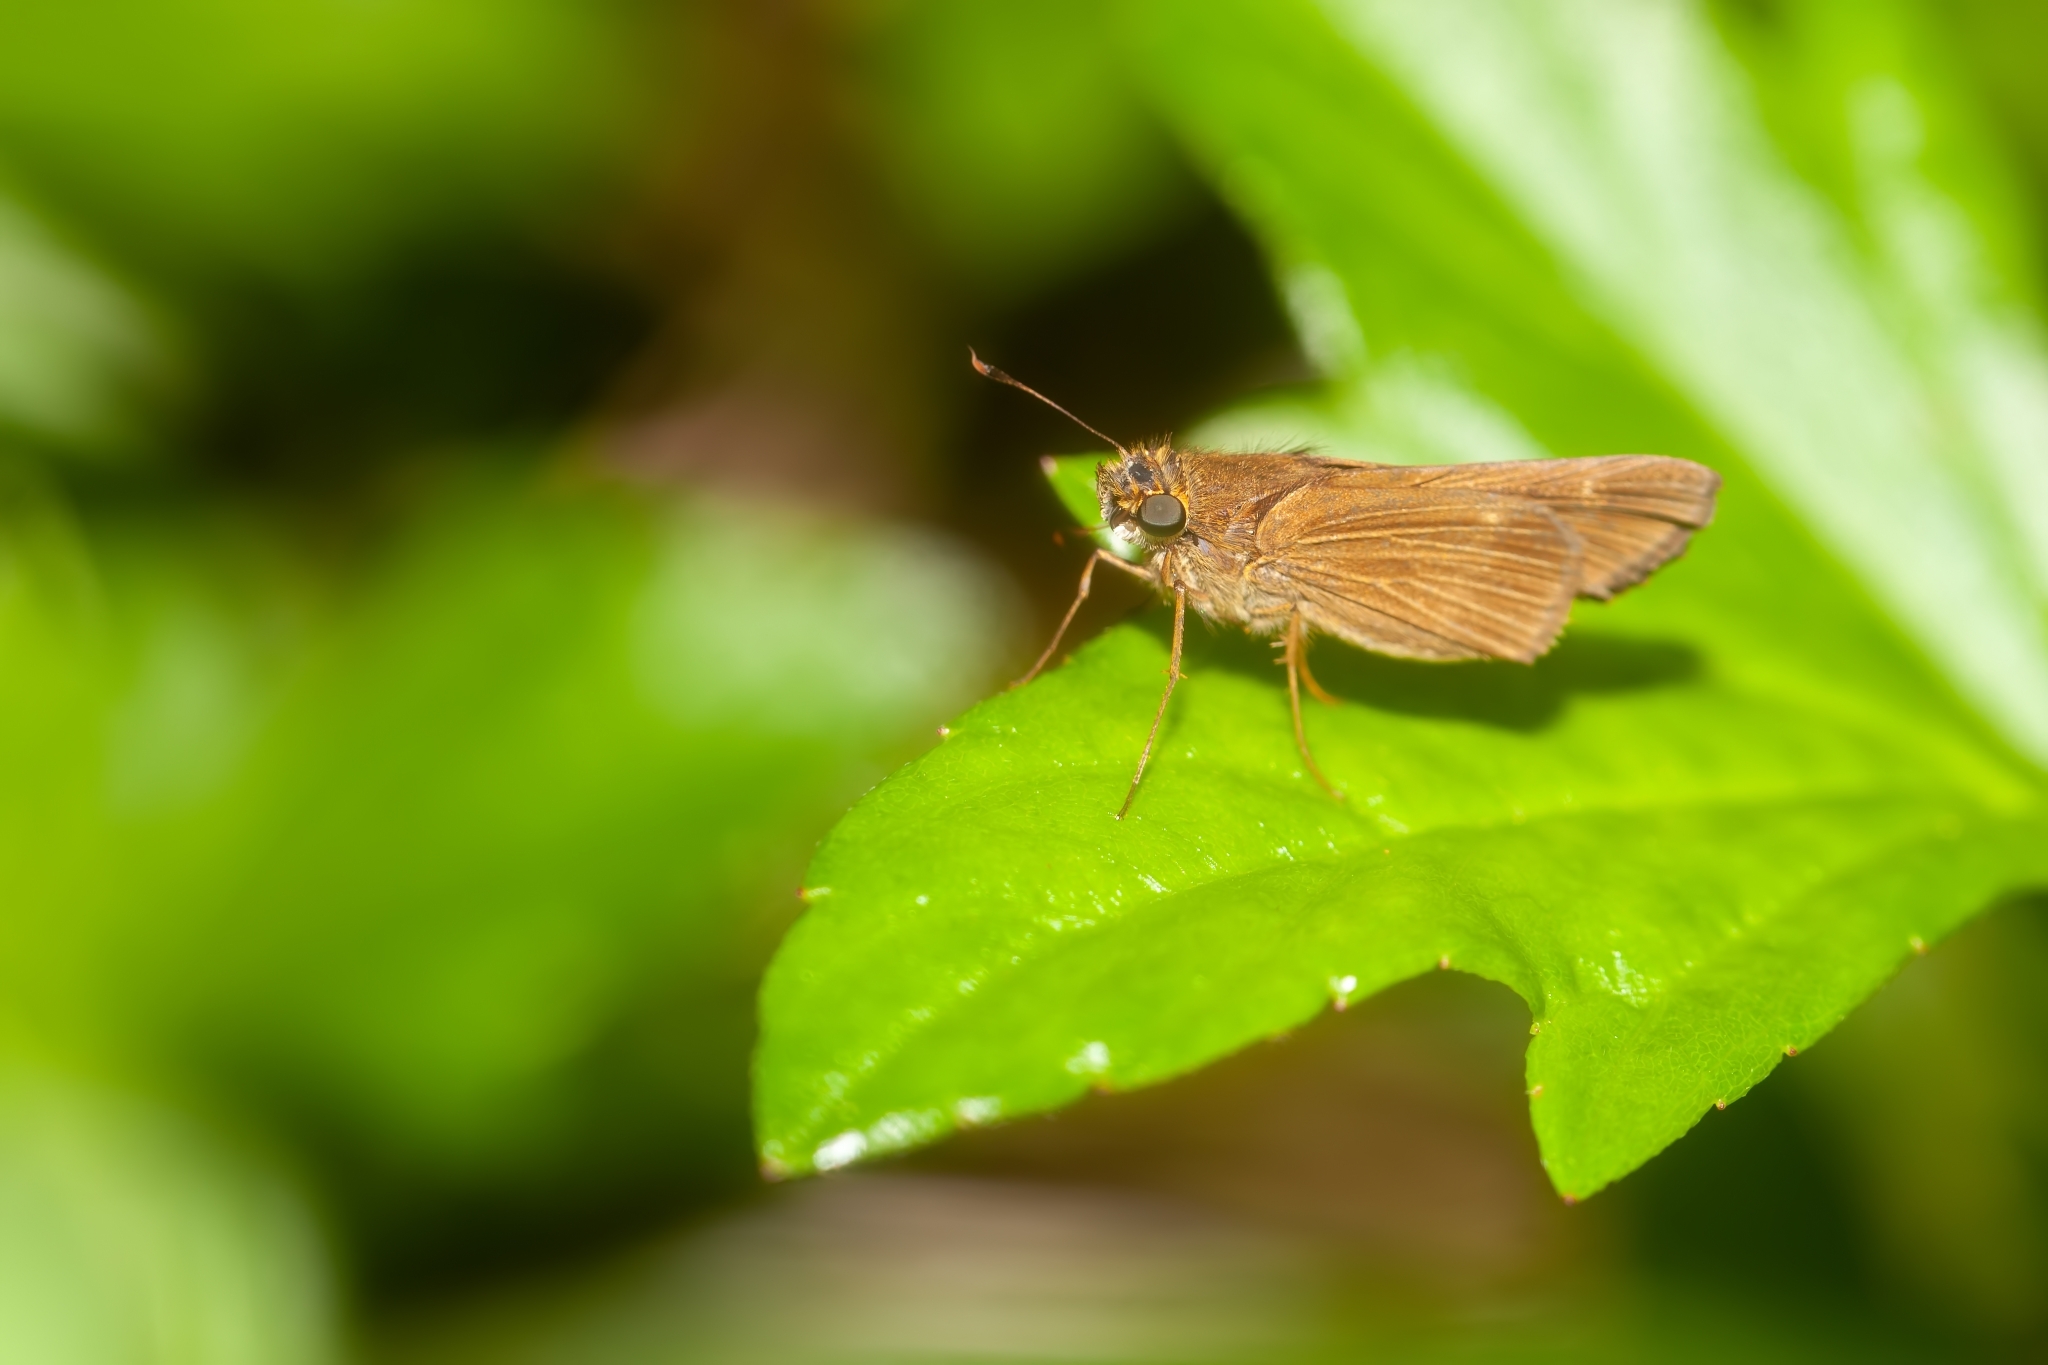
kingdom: Animalia
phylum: Arthropoda
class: Insecta
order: Lepidoptera
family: Hesperiidae
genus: Panoquina
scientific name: Panoquina ocola
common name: Ocola skipper
